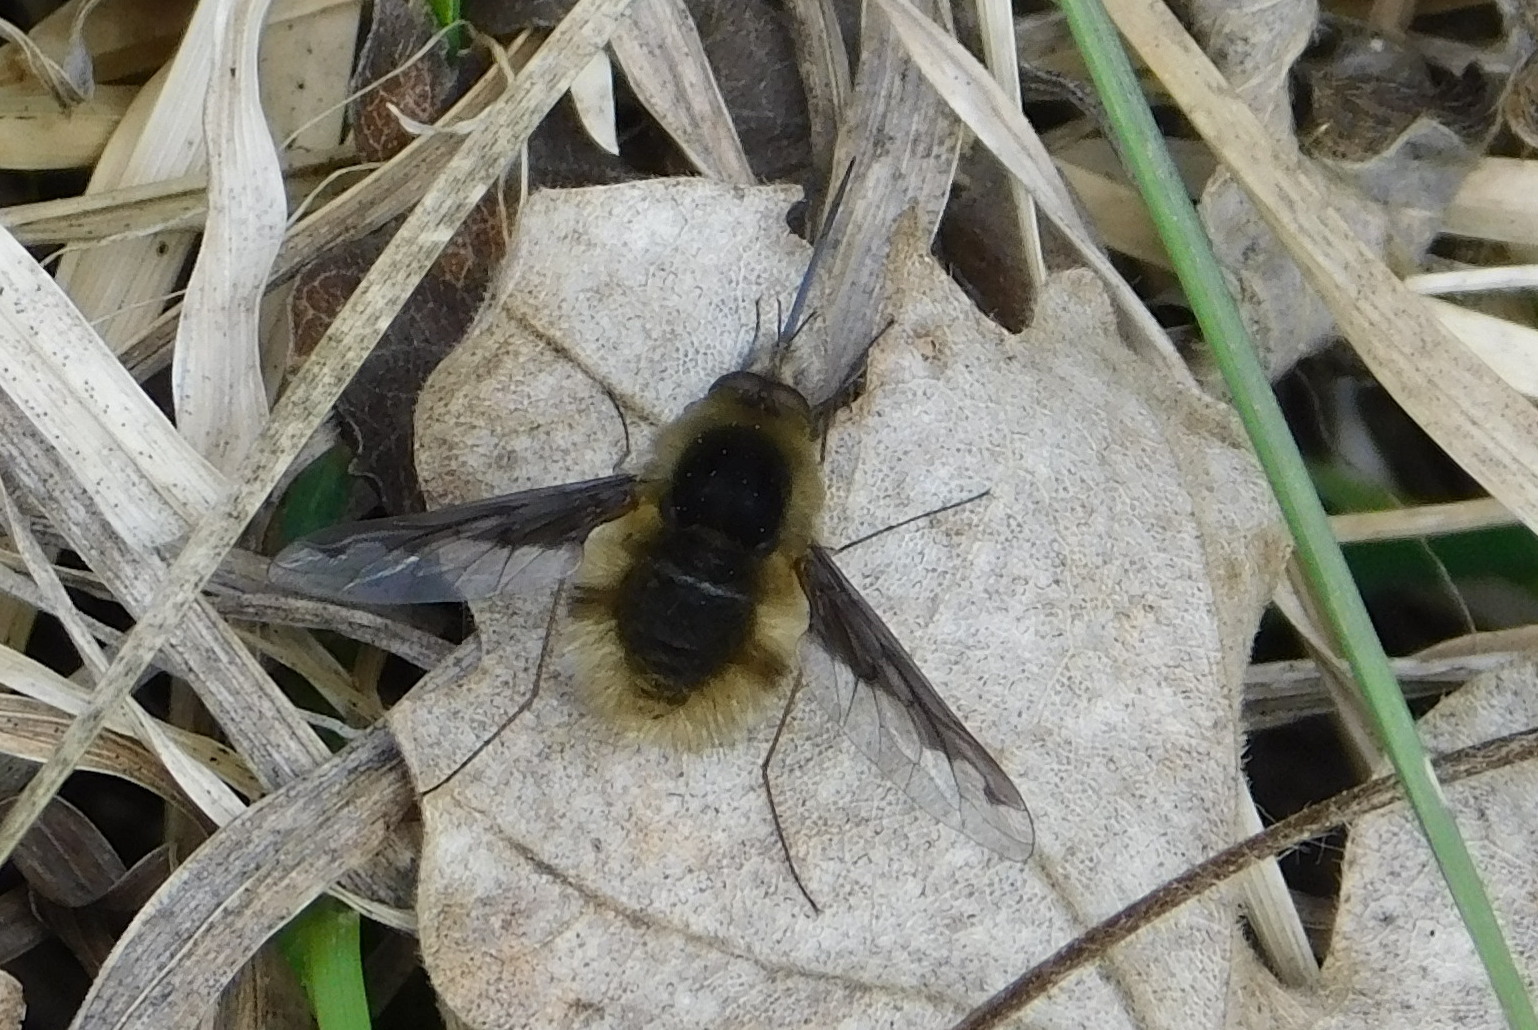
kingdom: Animalia
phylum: Arthropoda
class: Insecta
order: Diptera
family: Bombyliidae
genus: Bombylius
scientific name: Bombylius major
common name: Bee fly
